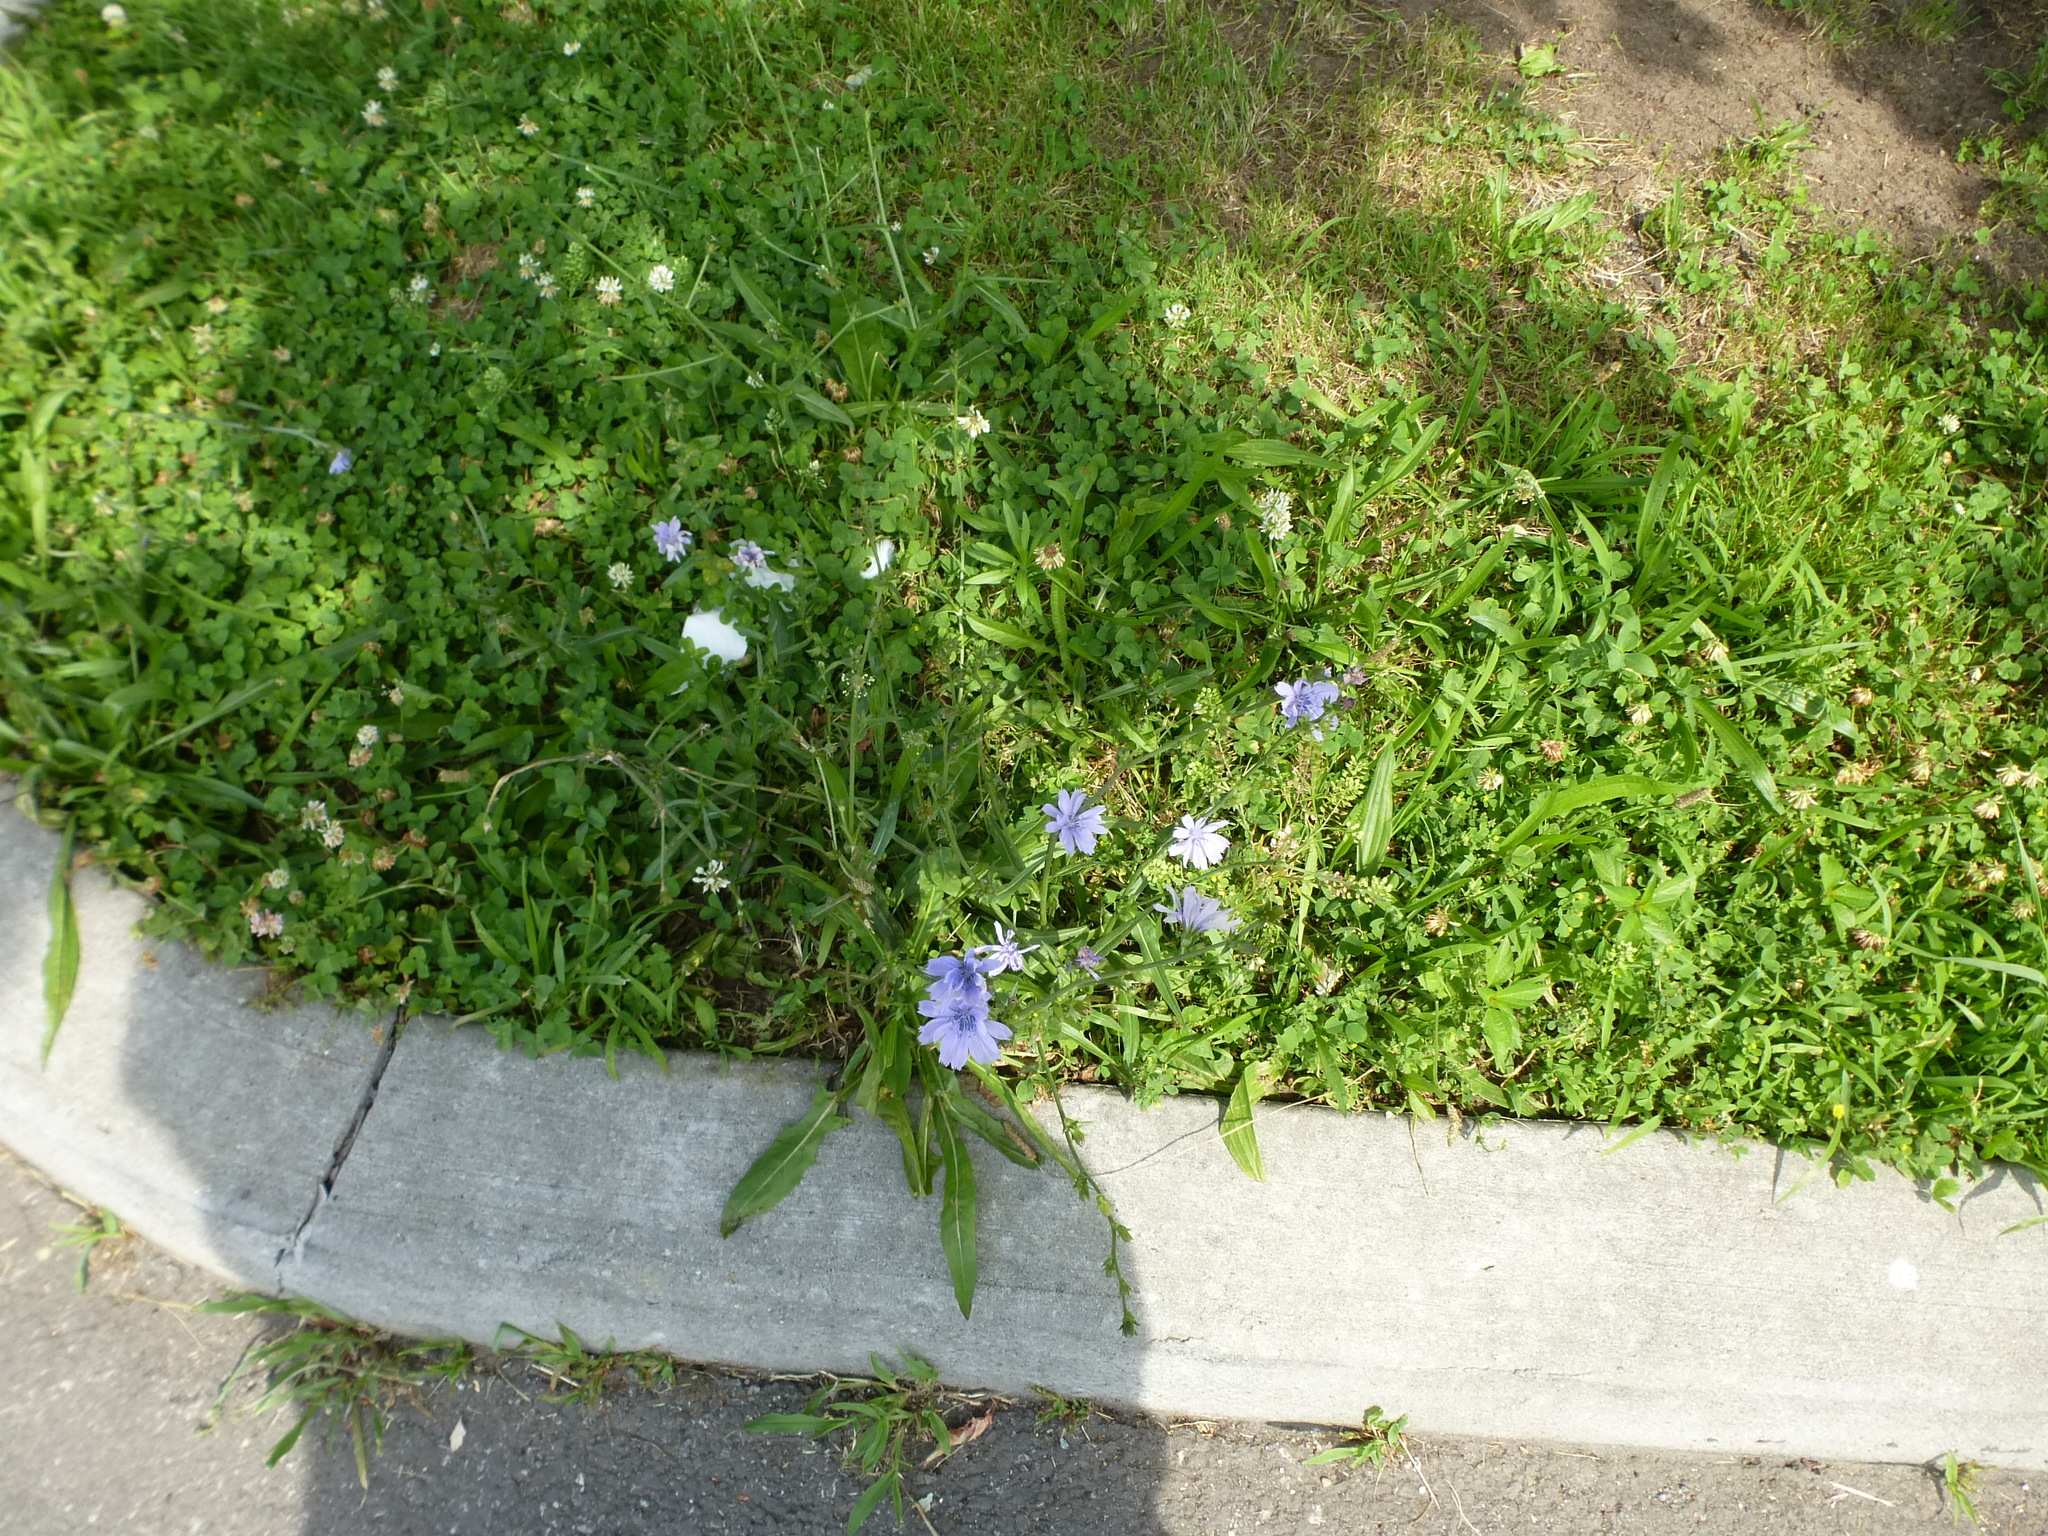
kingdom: Plantae
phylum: Tracheophyta
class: Magnoliopsida
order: Asterales
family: Asteraceae
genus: Cichorium
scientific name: Cichorium intybus
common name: Chicory
